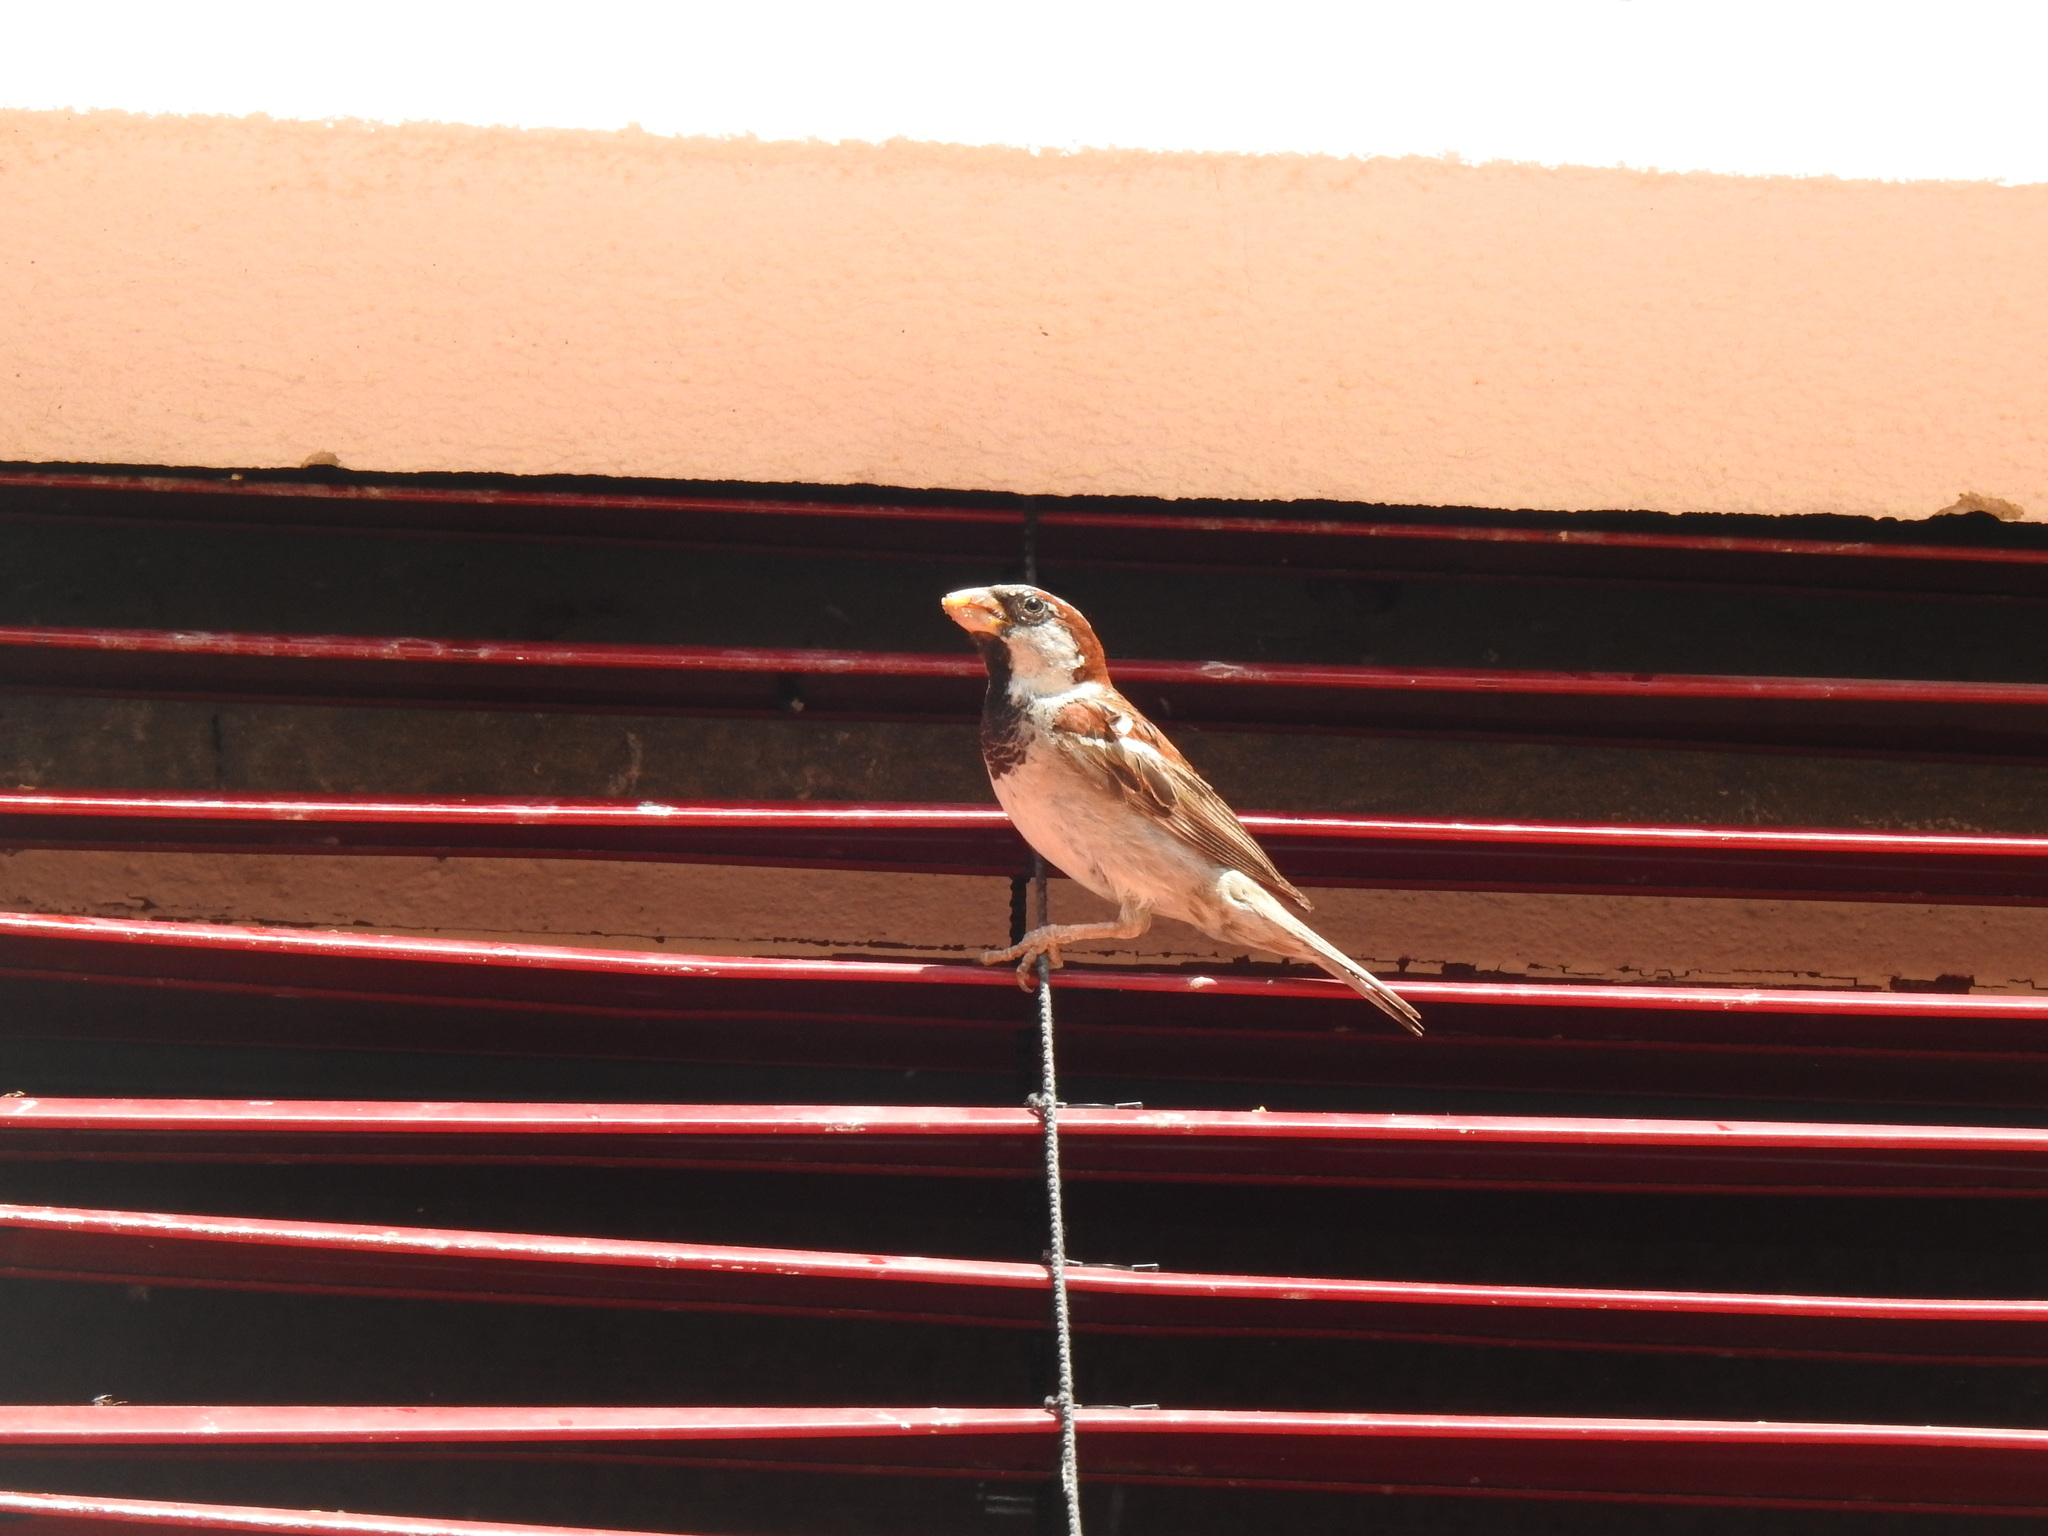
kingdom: Animalia
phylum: Chordata
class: Aves
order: Passeriformes
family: Passeridae
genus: Passer
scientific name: Passer domesticus
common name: House sparrow
